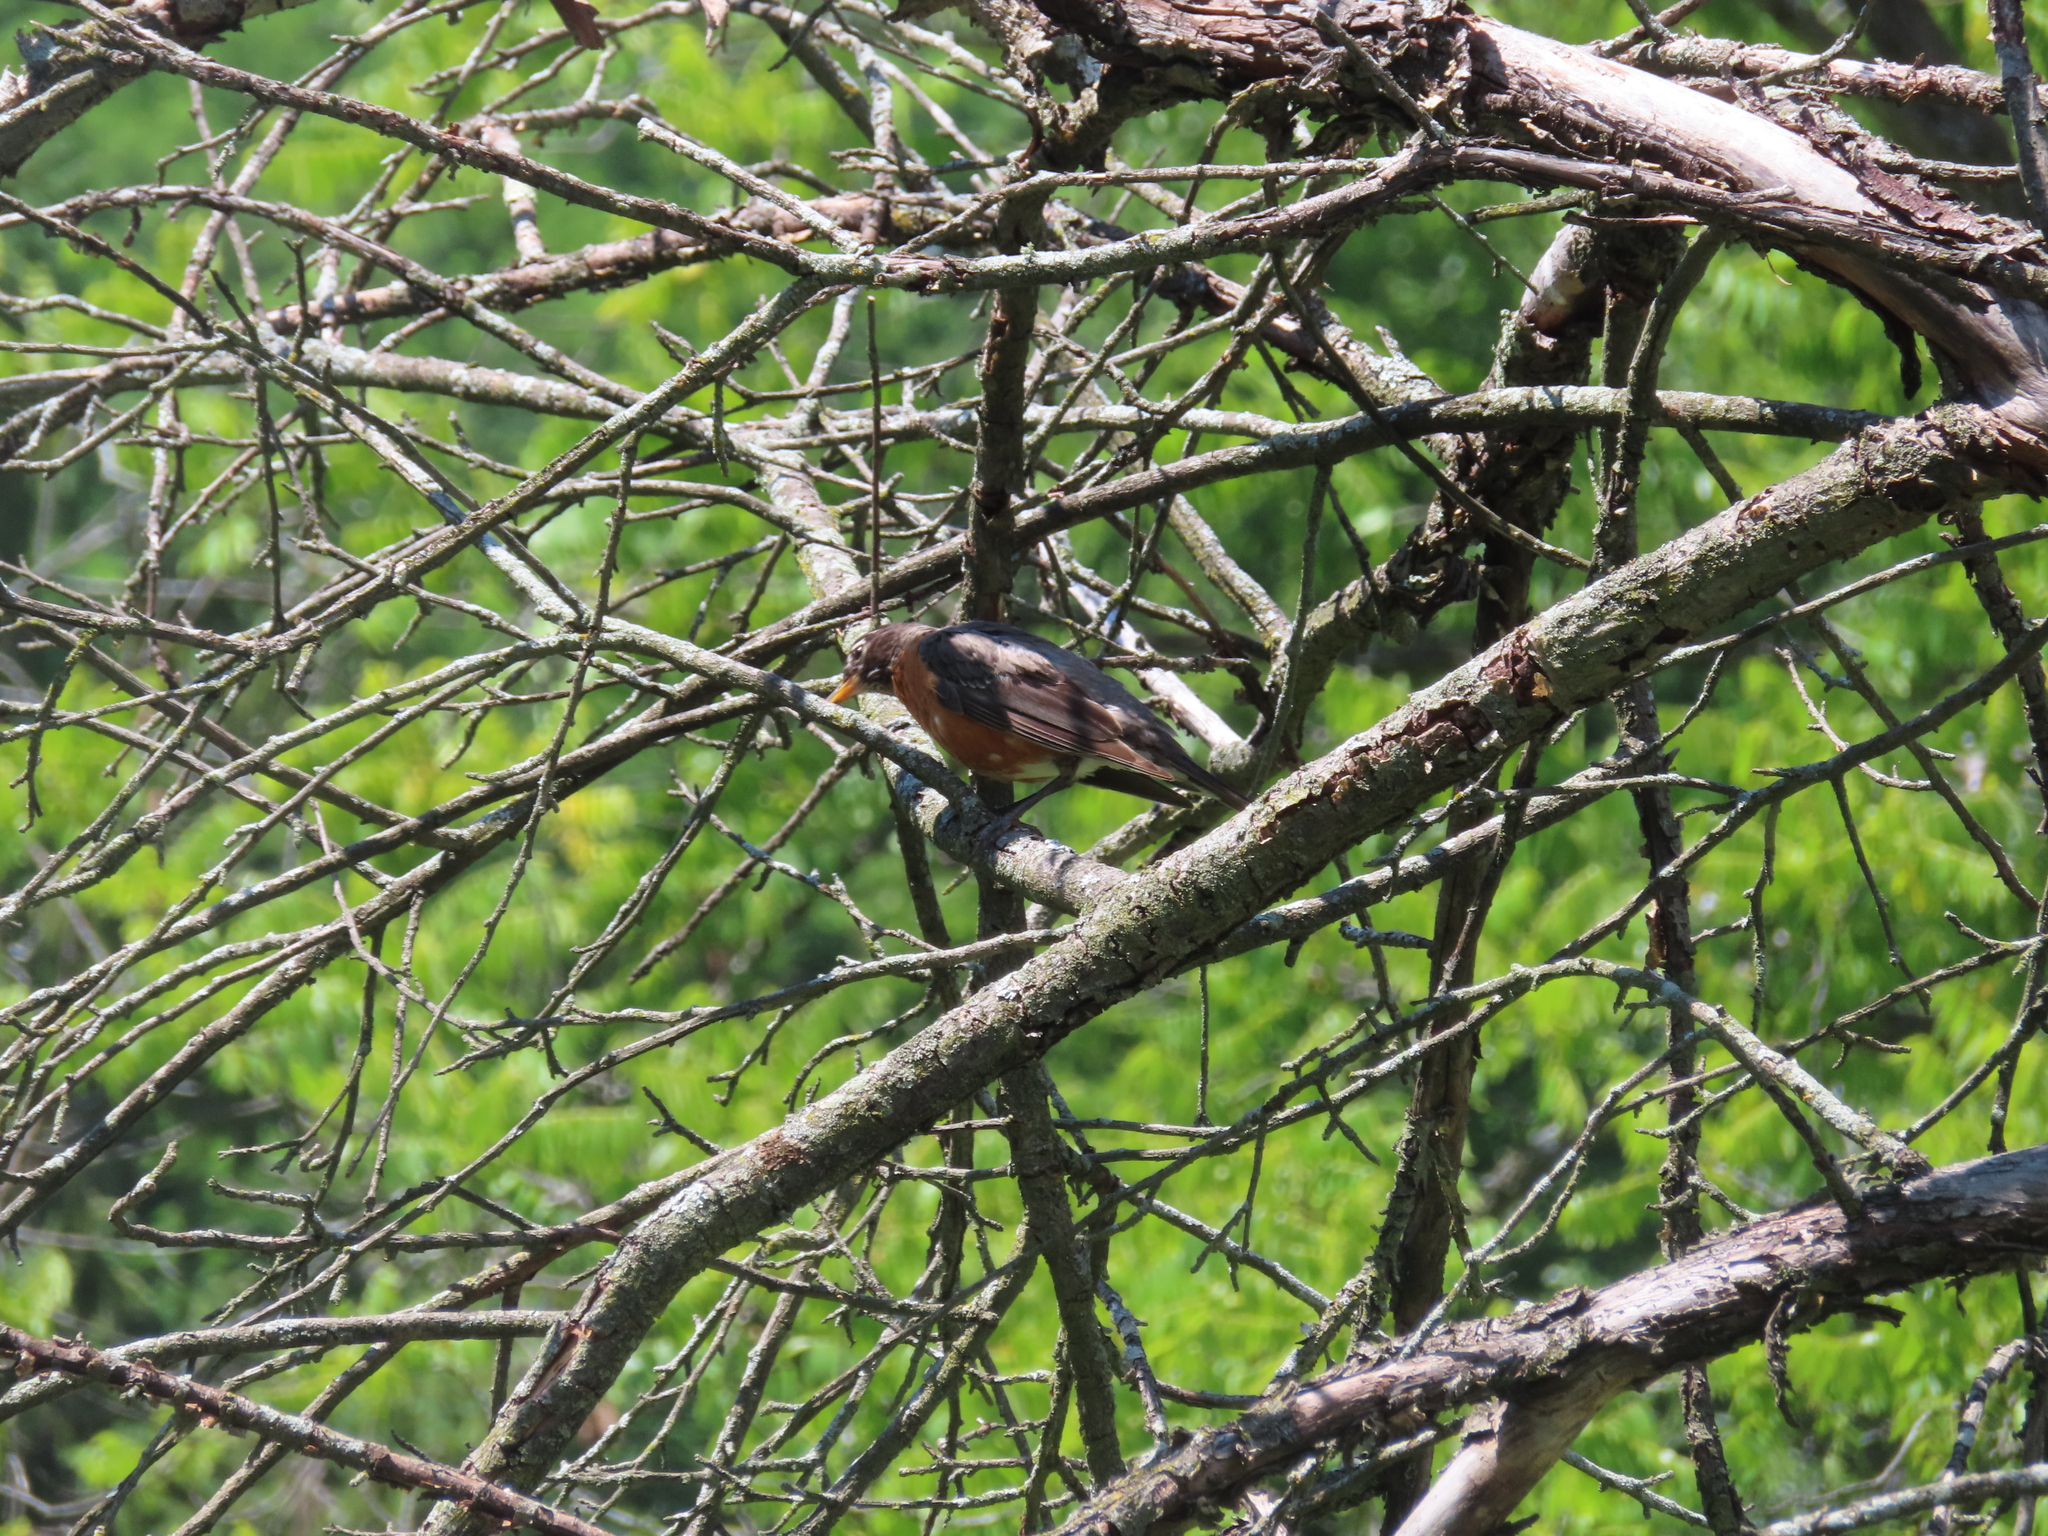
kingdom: Animalia
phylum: Chordata
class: Aves
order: Passeriformes
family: Turdidae
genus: Turdus
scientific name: Turdus migratorius
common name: American robin
